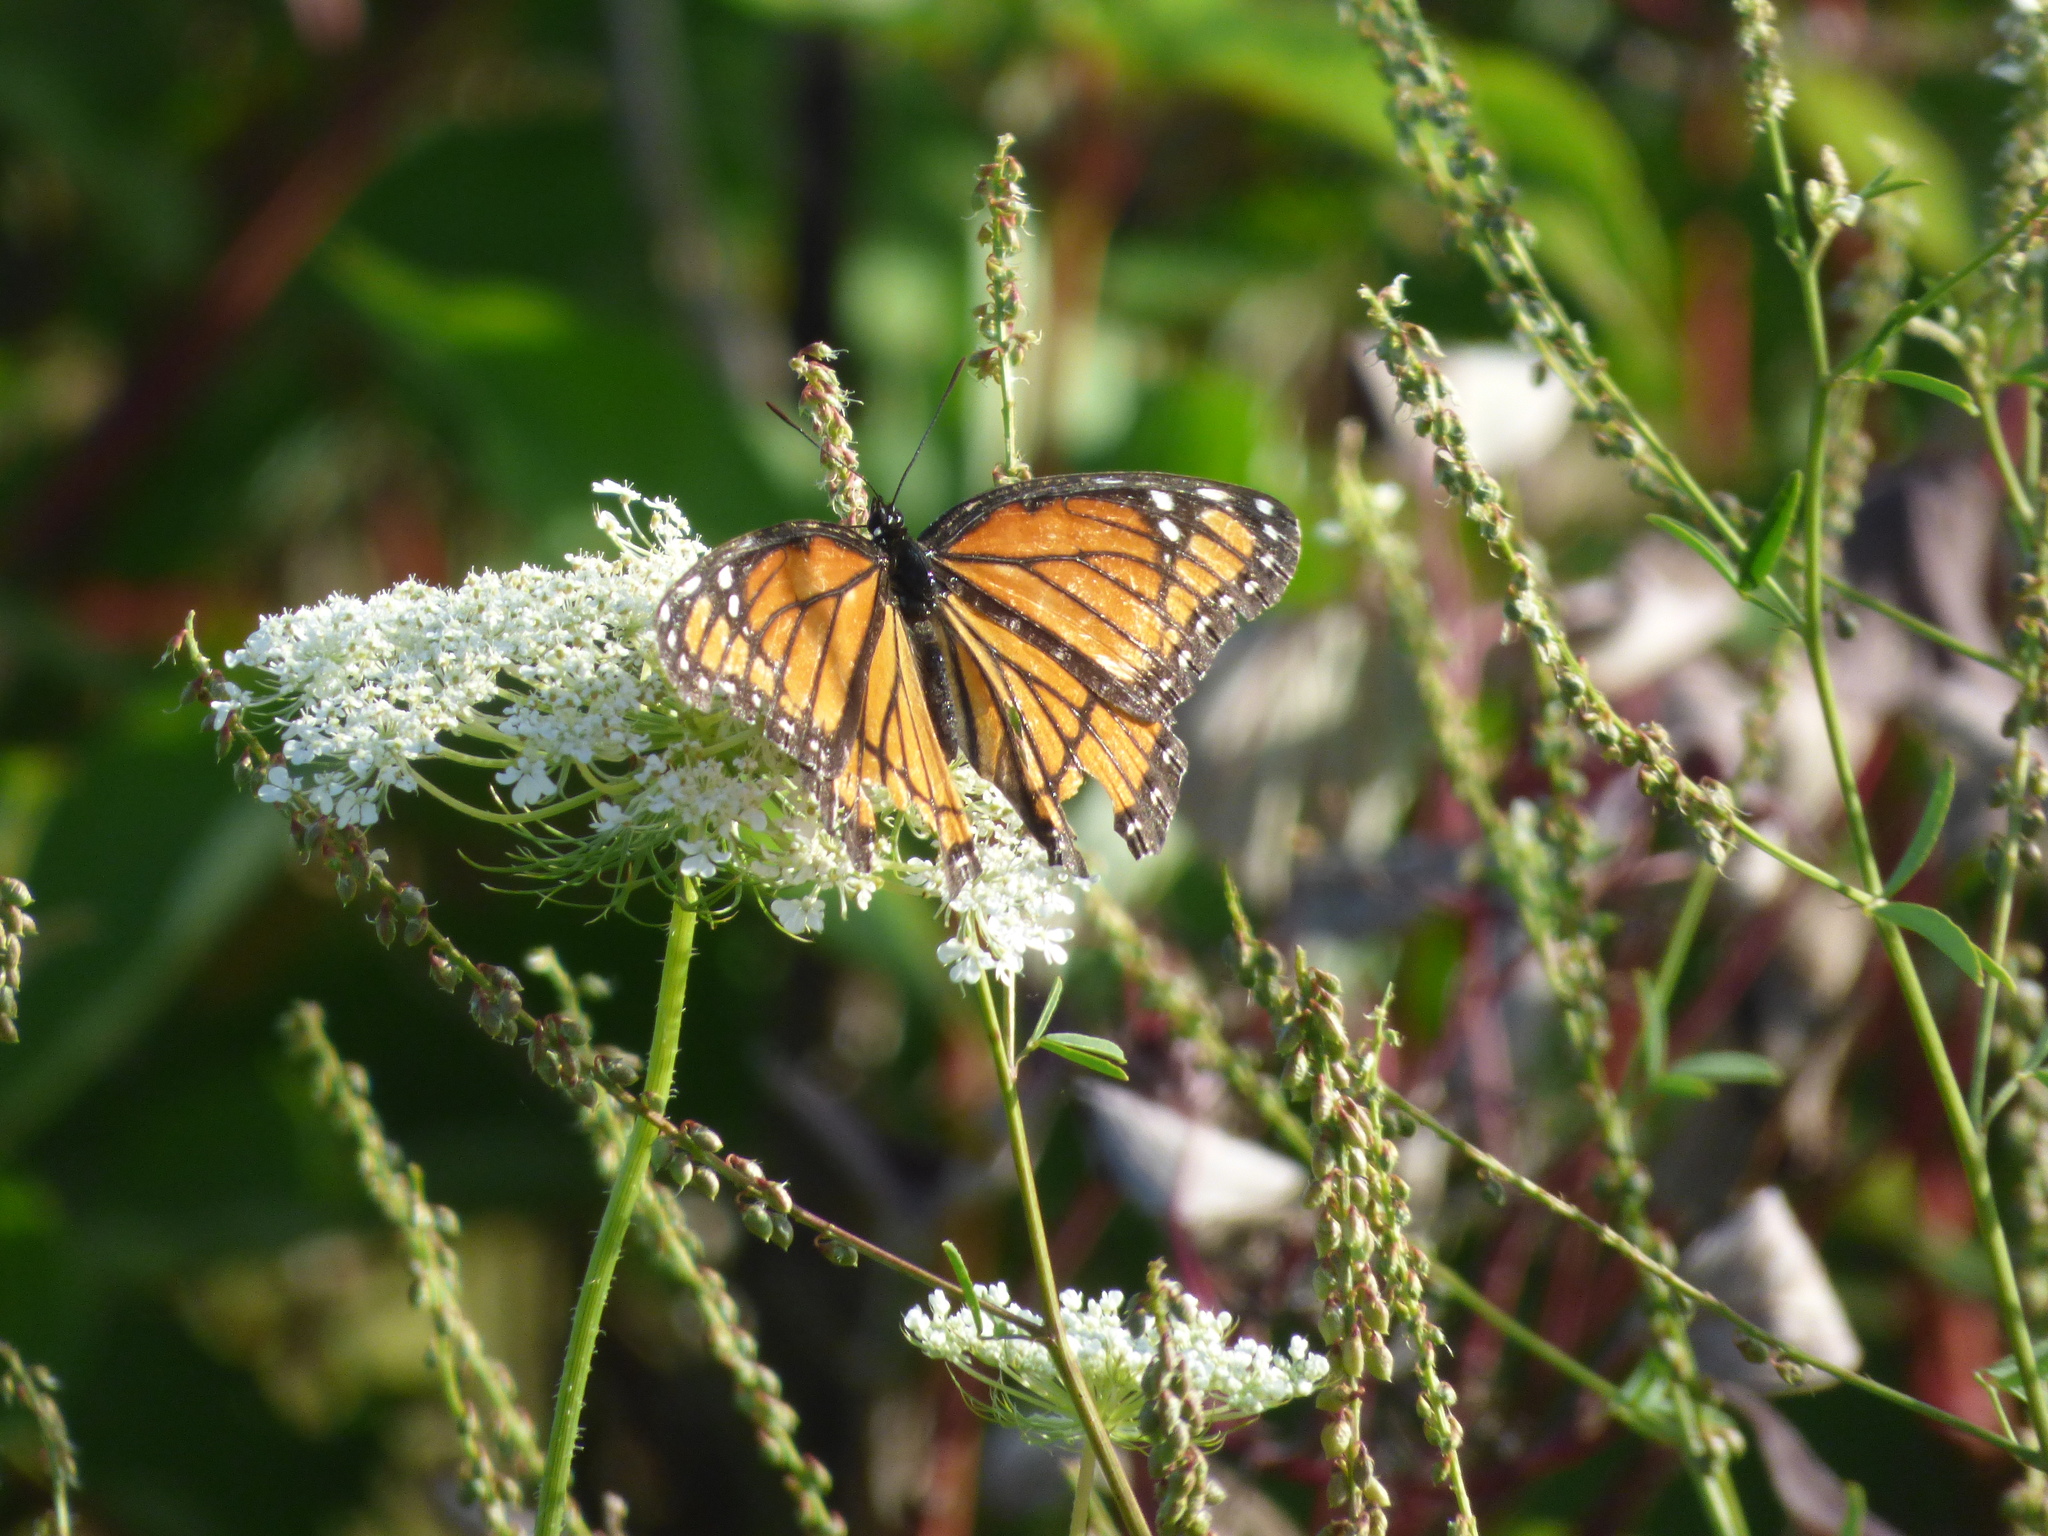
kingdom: Animalia
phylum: Arthropoda
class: Insecta
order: Lepidoptera
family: Nymphalidae
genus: Limenitis
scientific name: Limenitis archippus
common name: Viceroy
